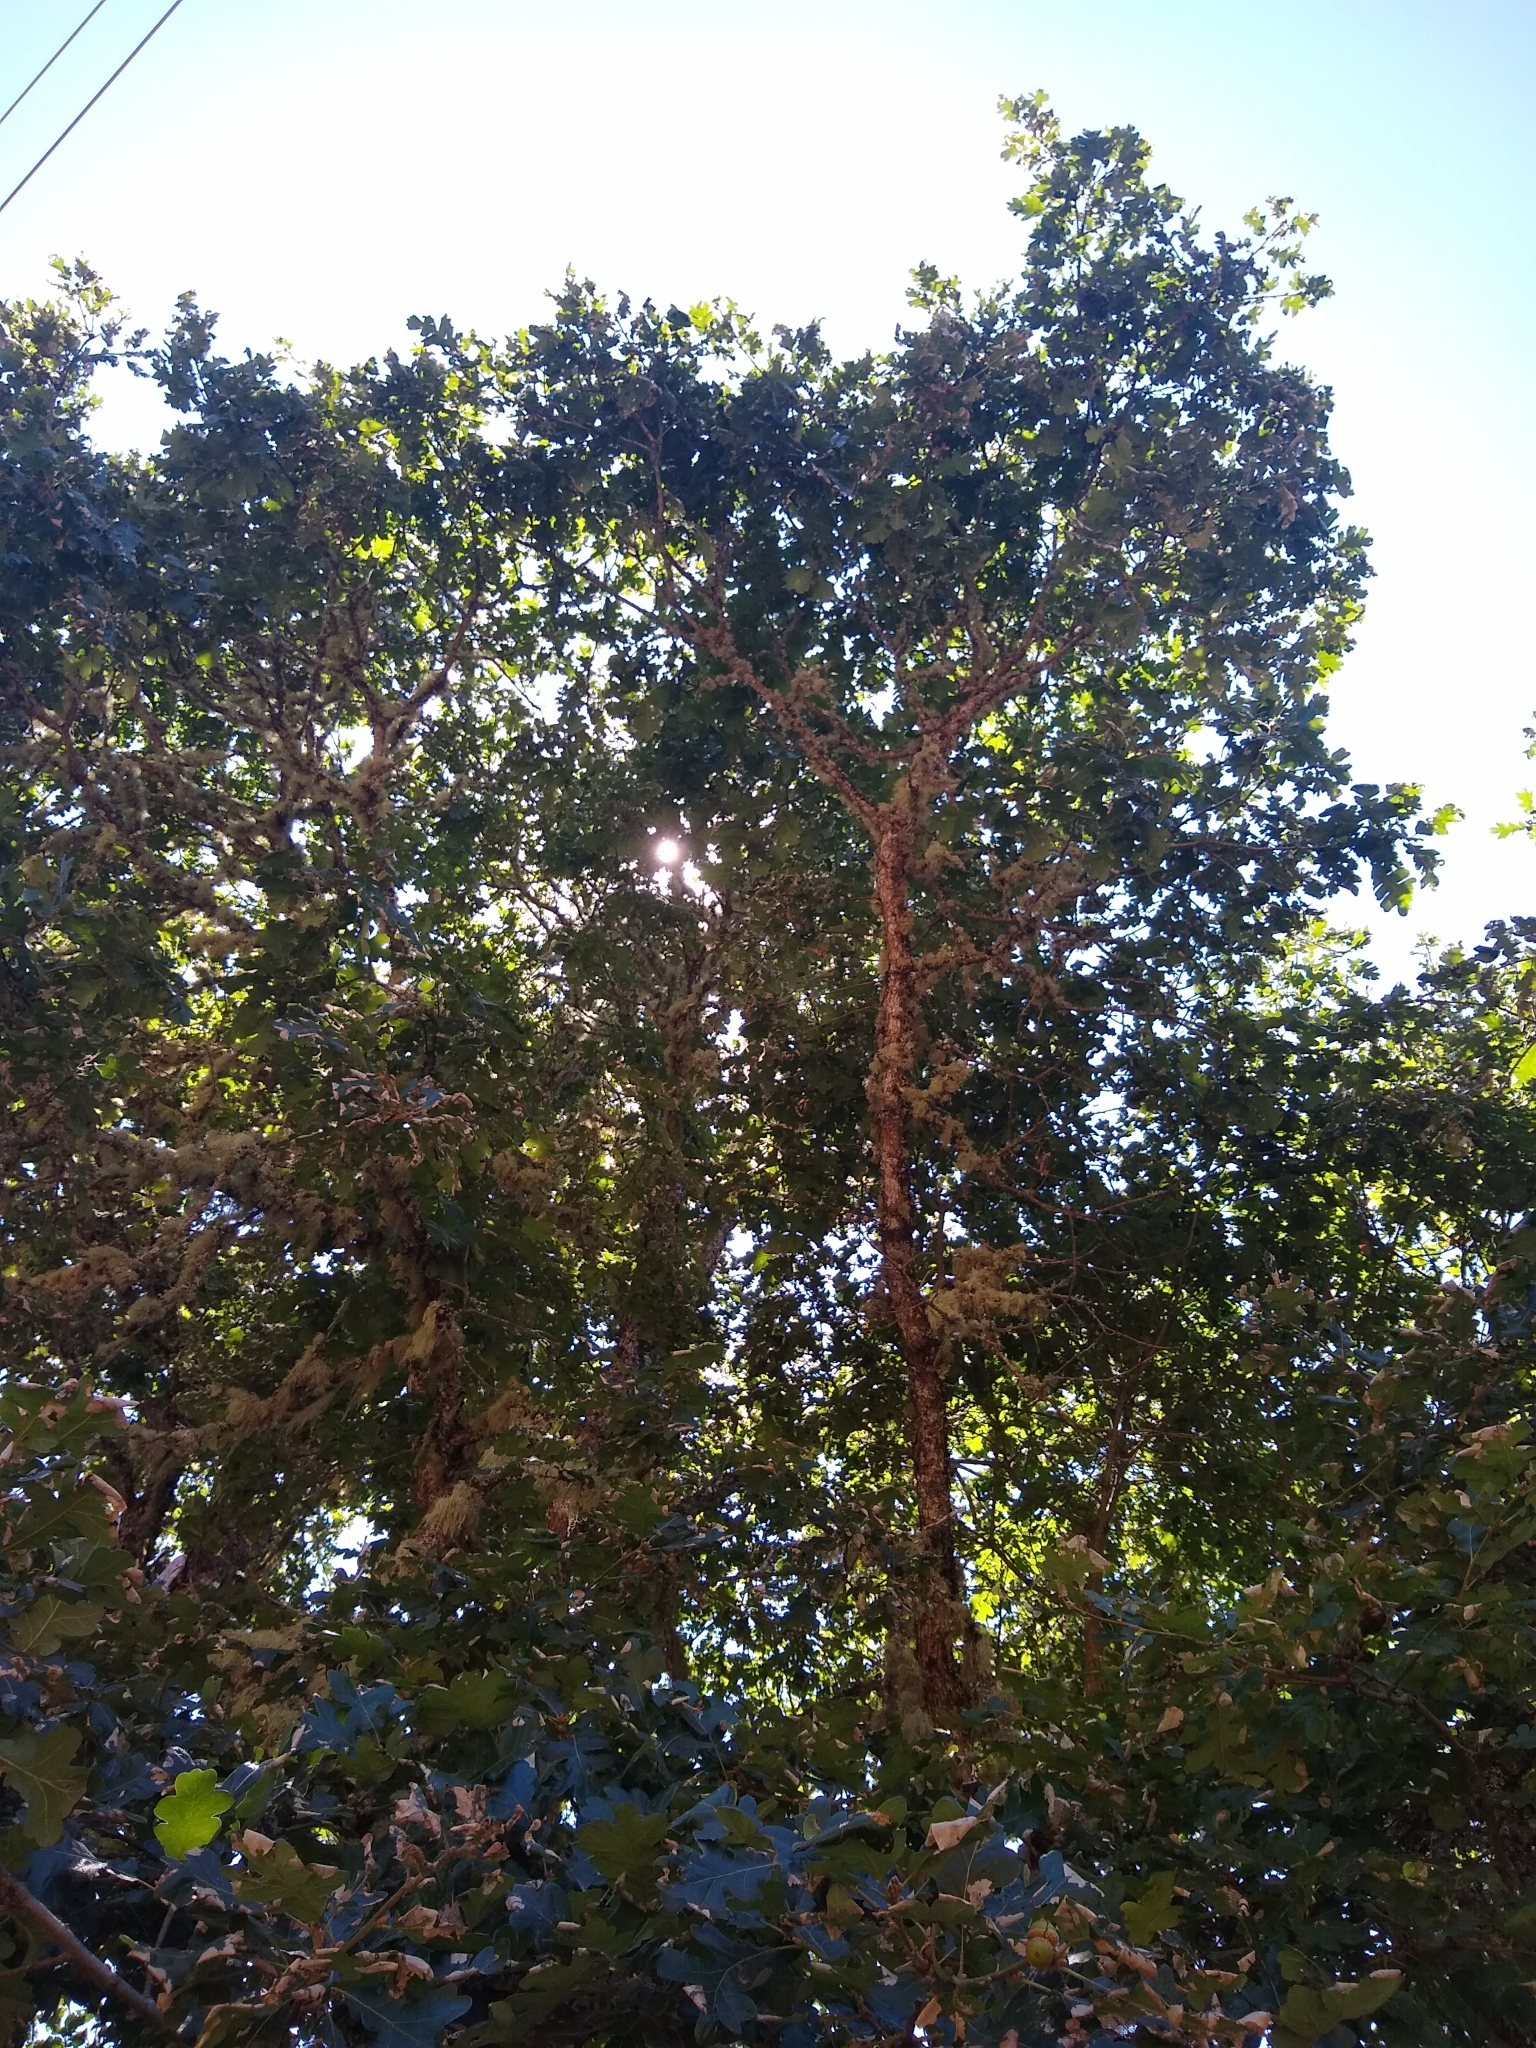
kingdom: Plantae
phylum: Tracheophyta
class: Magnoliopsida
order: Fagales
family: Fagaceae
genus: Quercus
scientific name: Quercus garryana
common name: Garry oak
